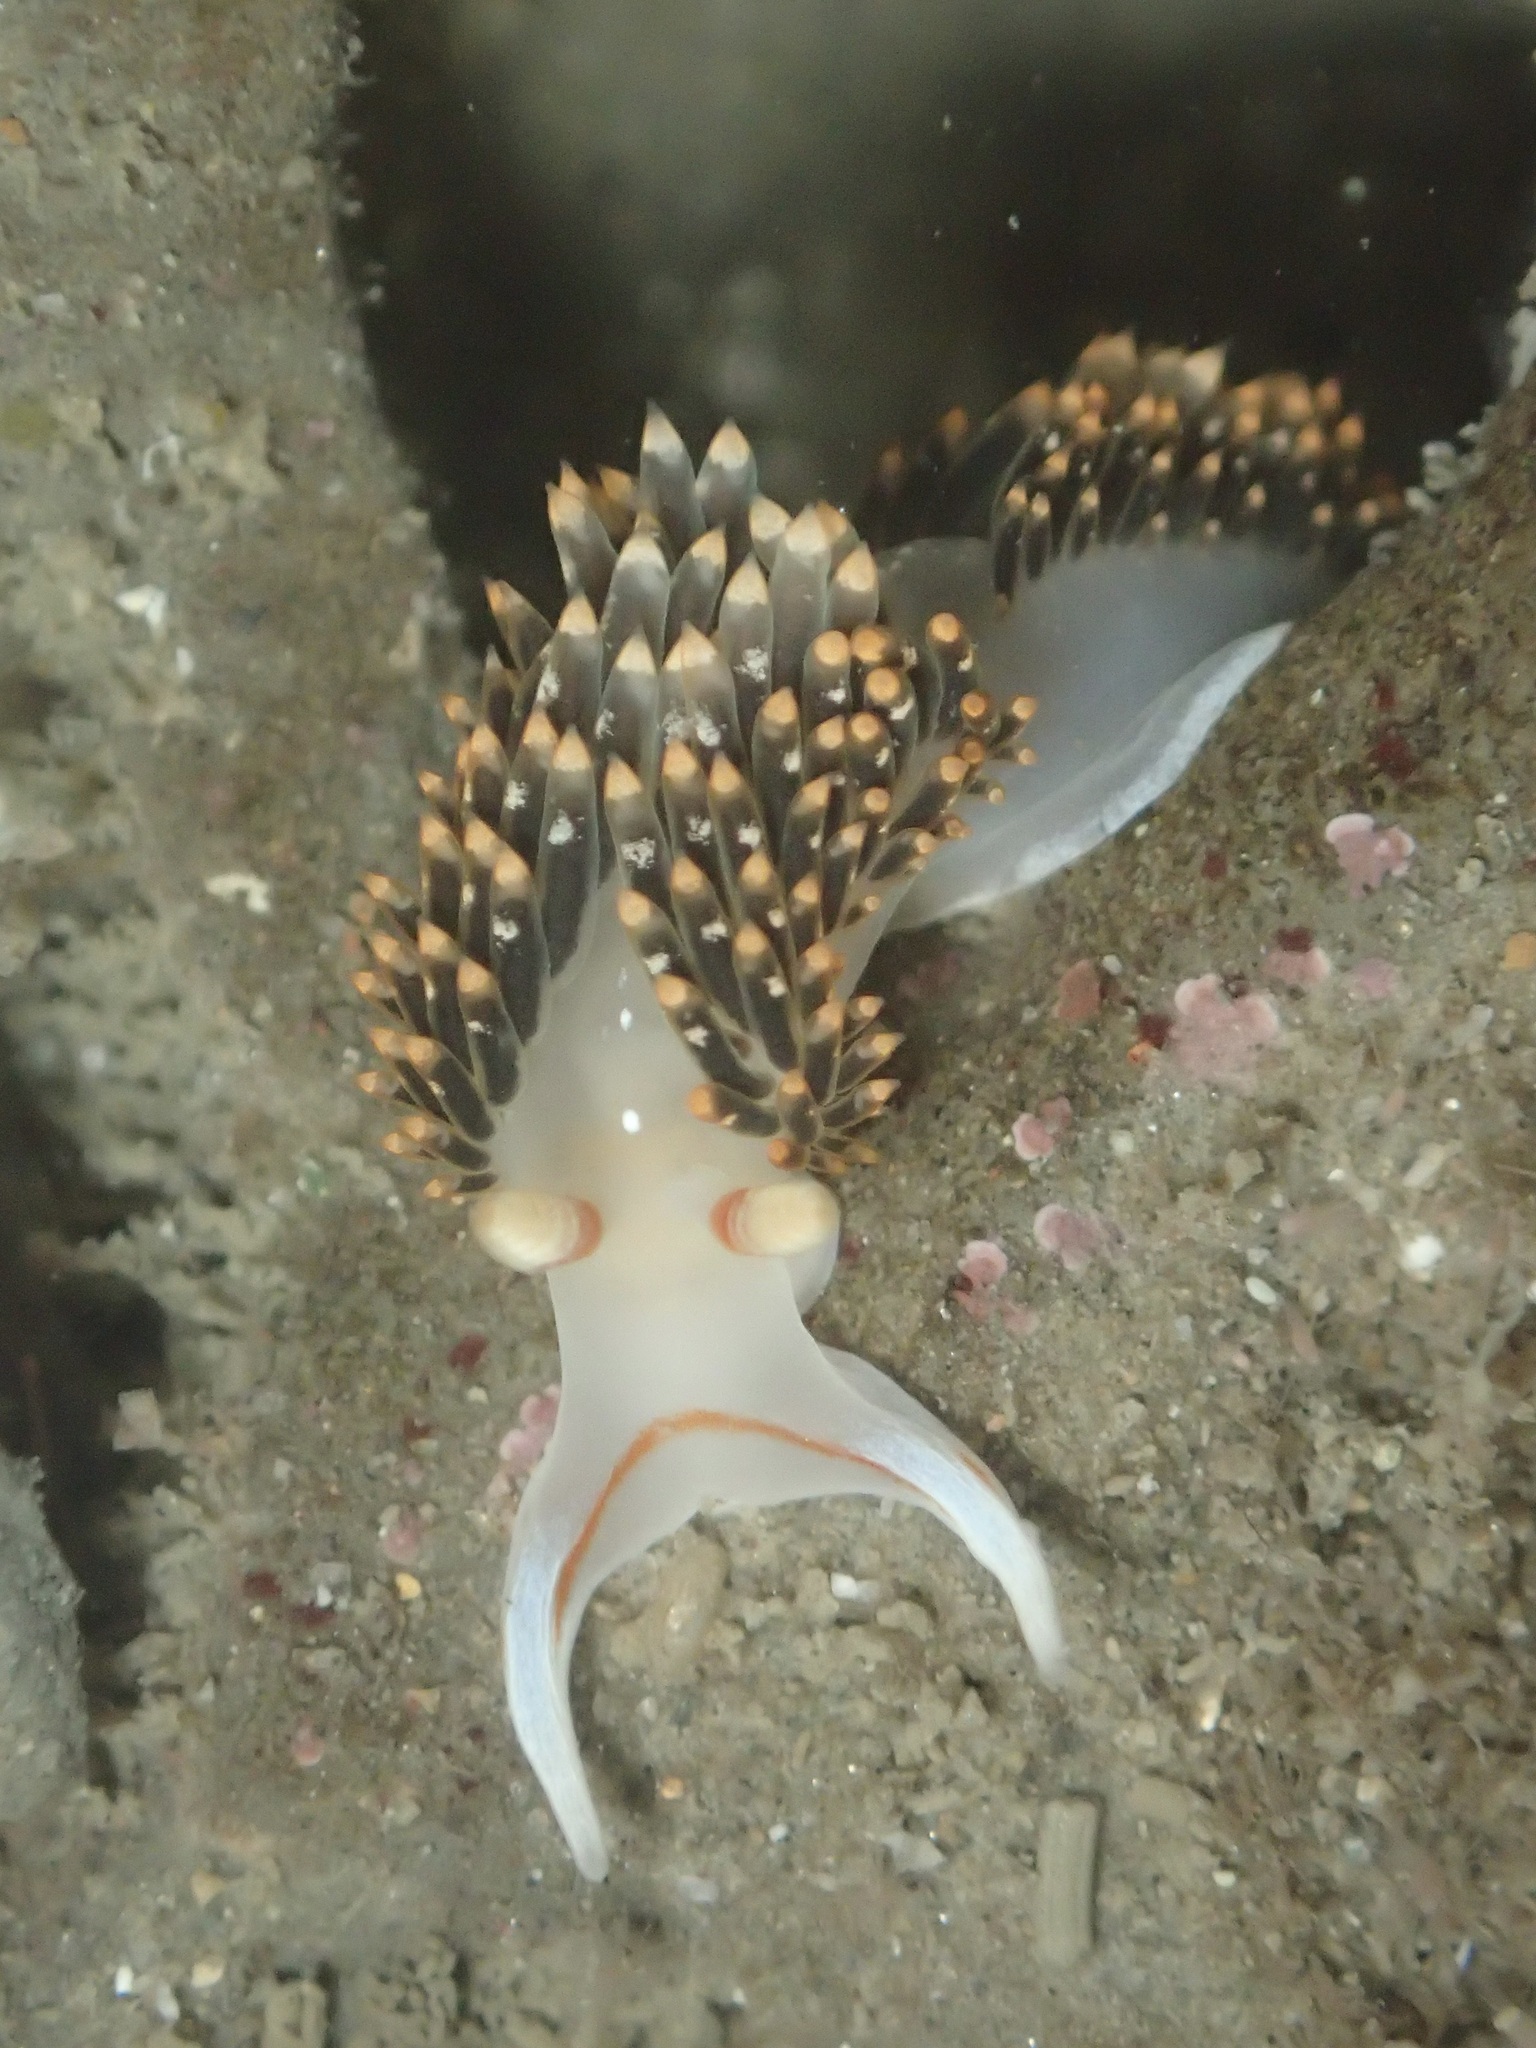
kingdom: Animalia
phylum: Mollusca
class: Gastropoda
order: Nudibranchia
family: Facelinidae
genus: Phidiana
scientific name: Phidiana hiltoni
